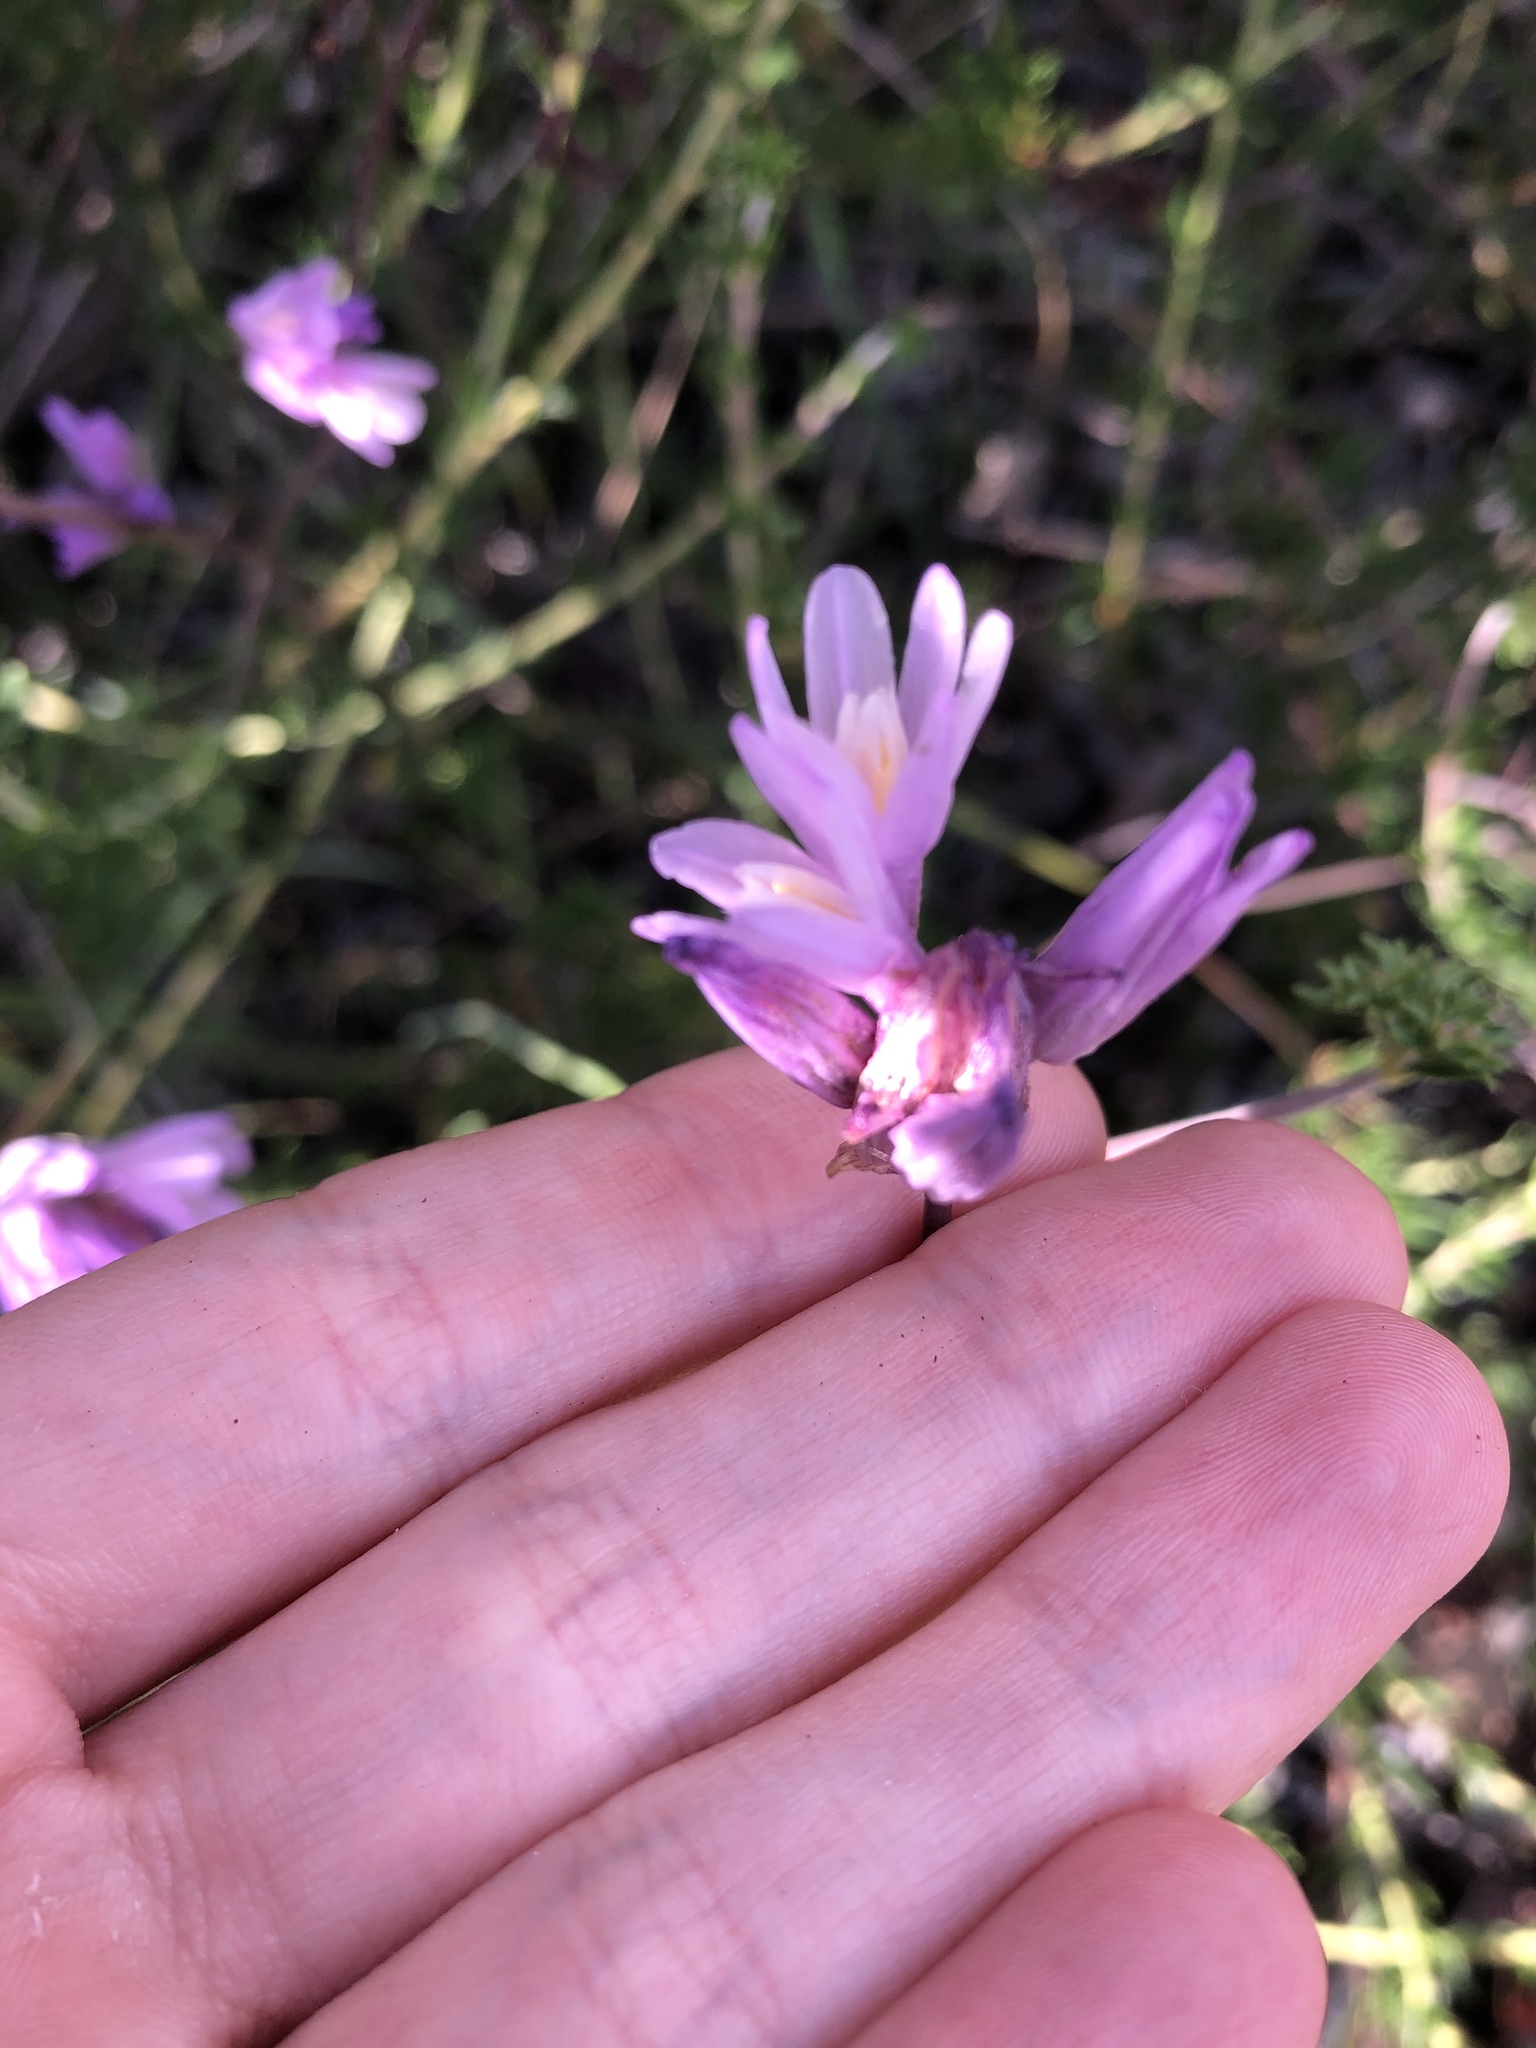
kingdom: Plantae
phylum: Tracheophyta
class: Liliopsida
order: Asparagales
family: Asparagaceae
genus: Dipterostemon
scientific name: Dipterostemon capitatus
